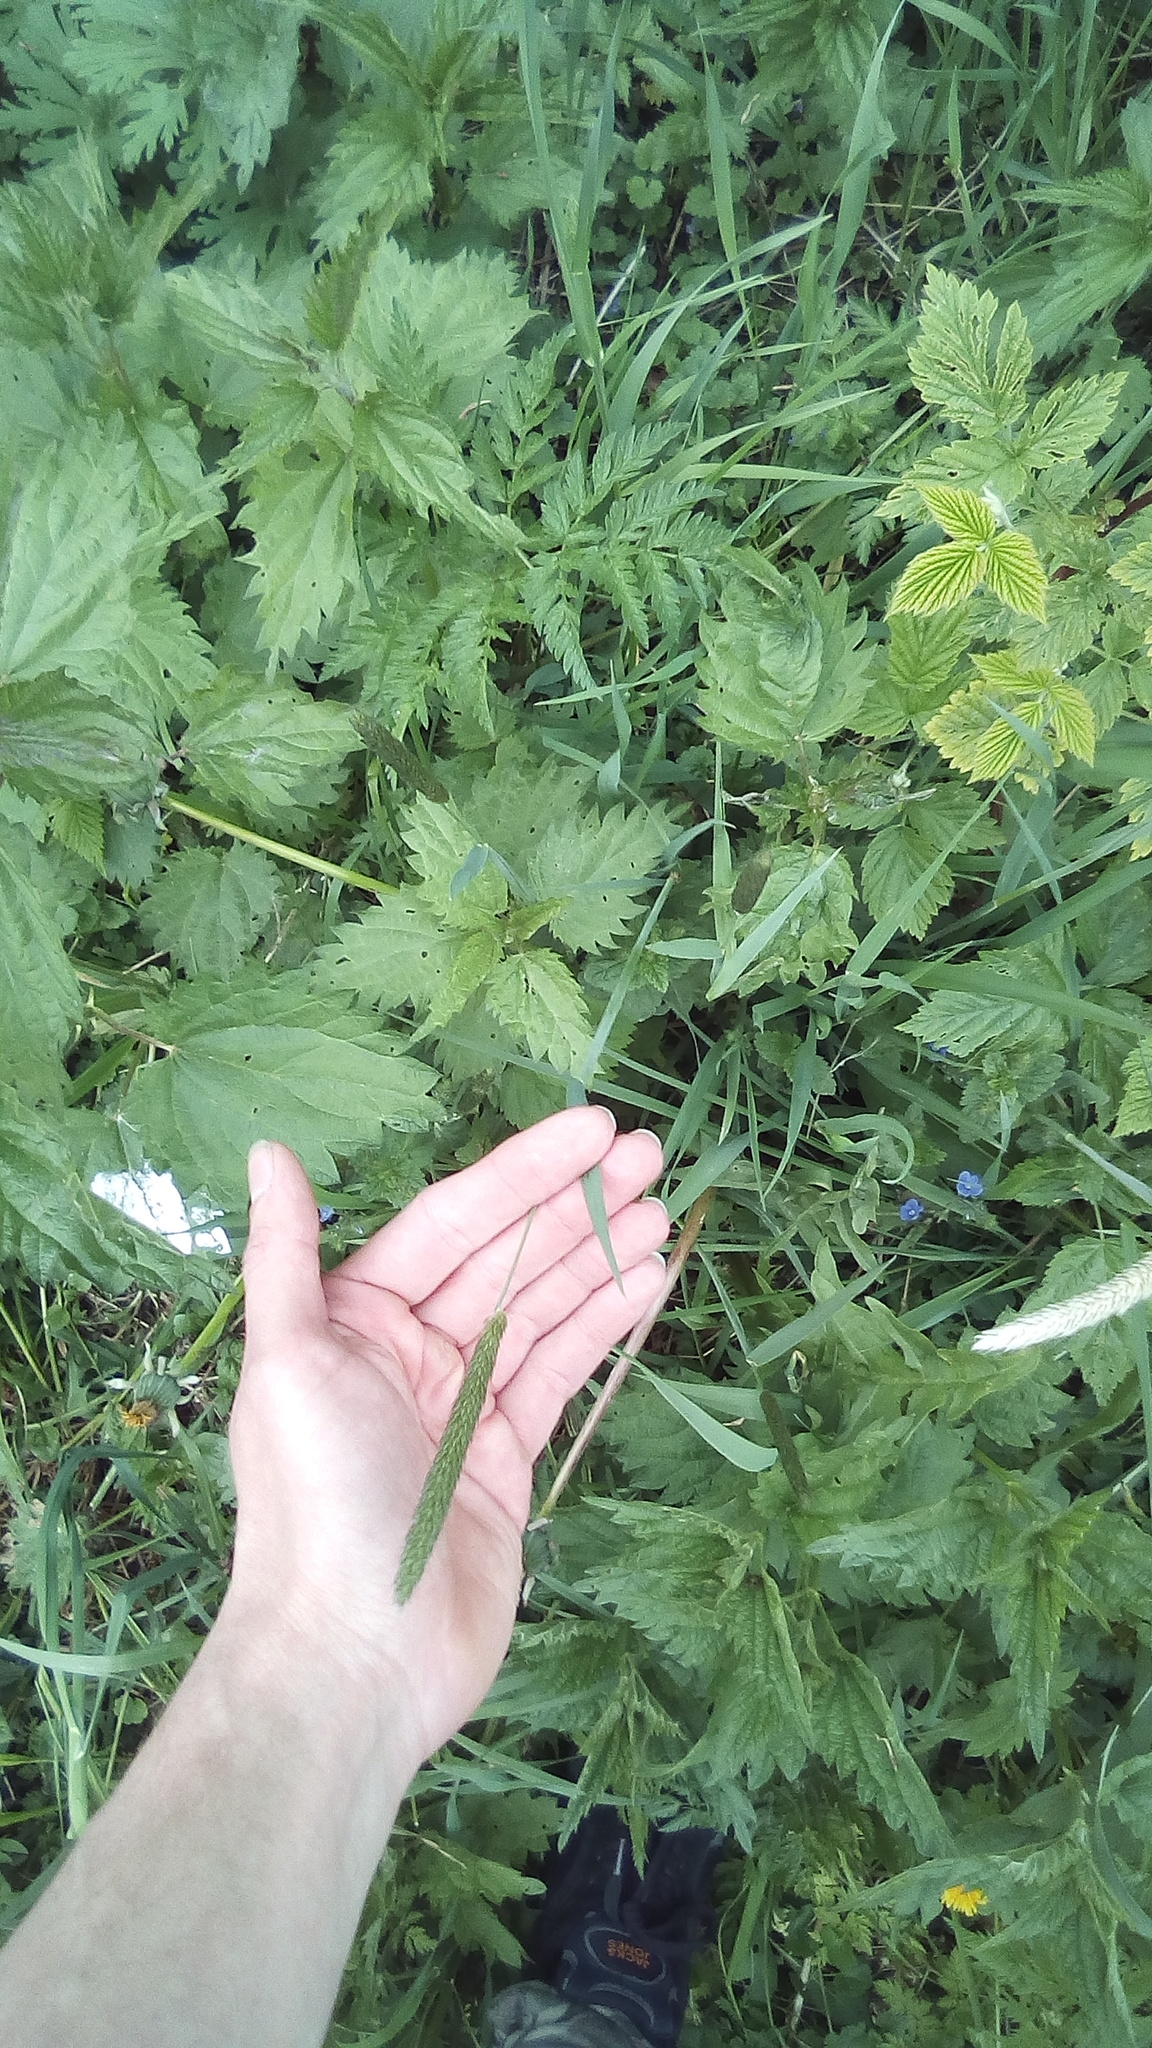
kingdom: Plantae
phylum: Tracheophyta
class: Liliopsida
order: Poales
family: Poaceae
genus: Alopecurus
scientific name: Alopecurus pratensis
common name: Meadow foxtail
